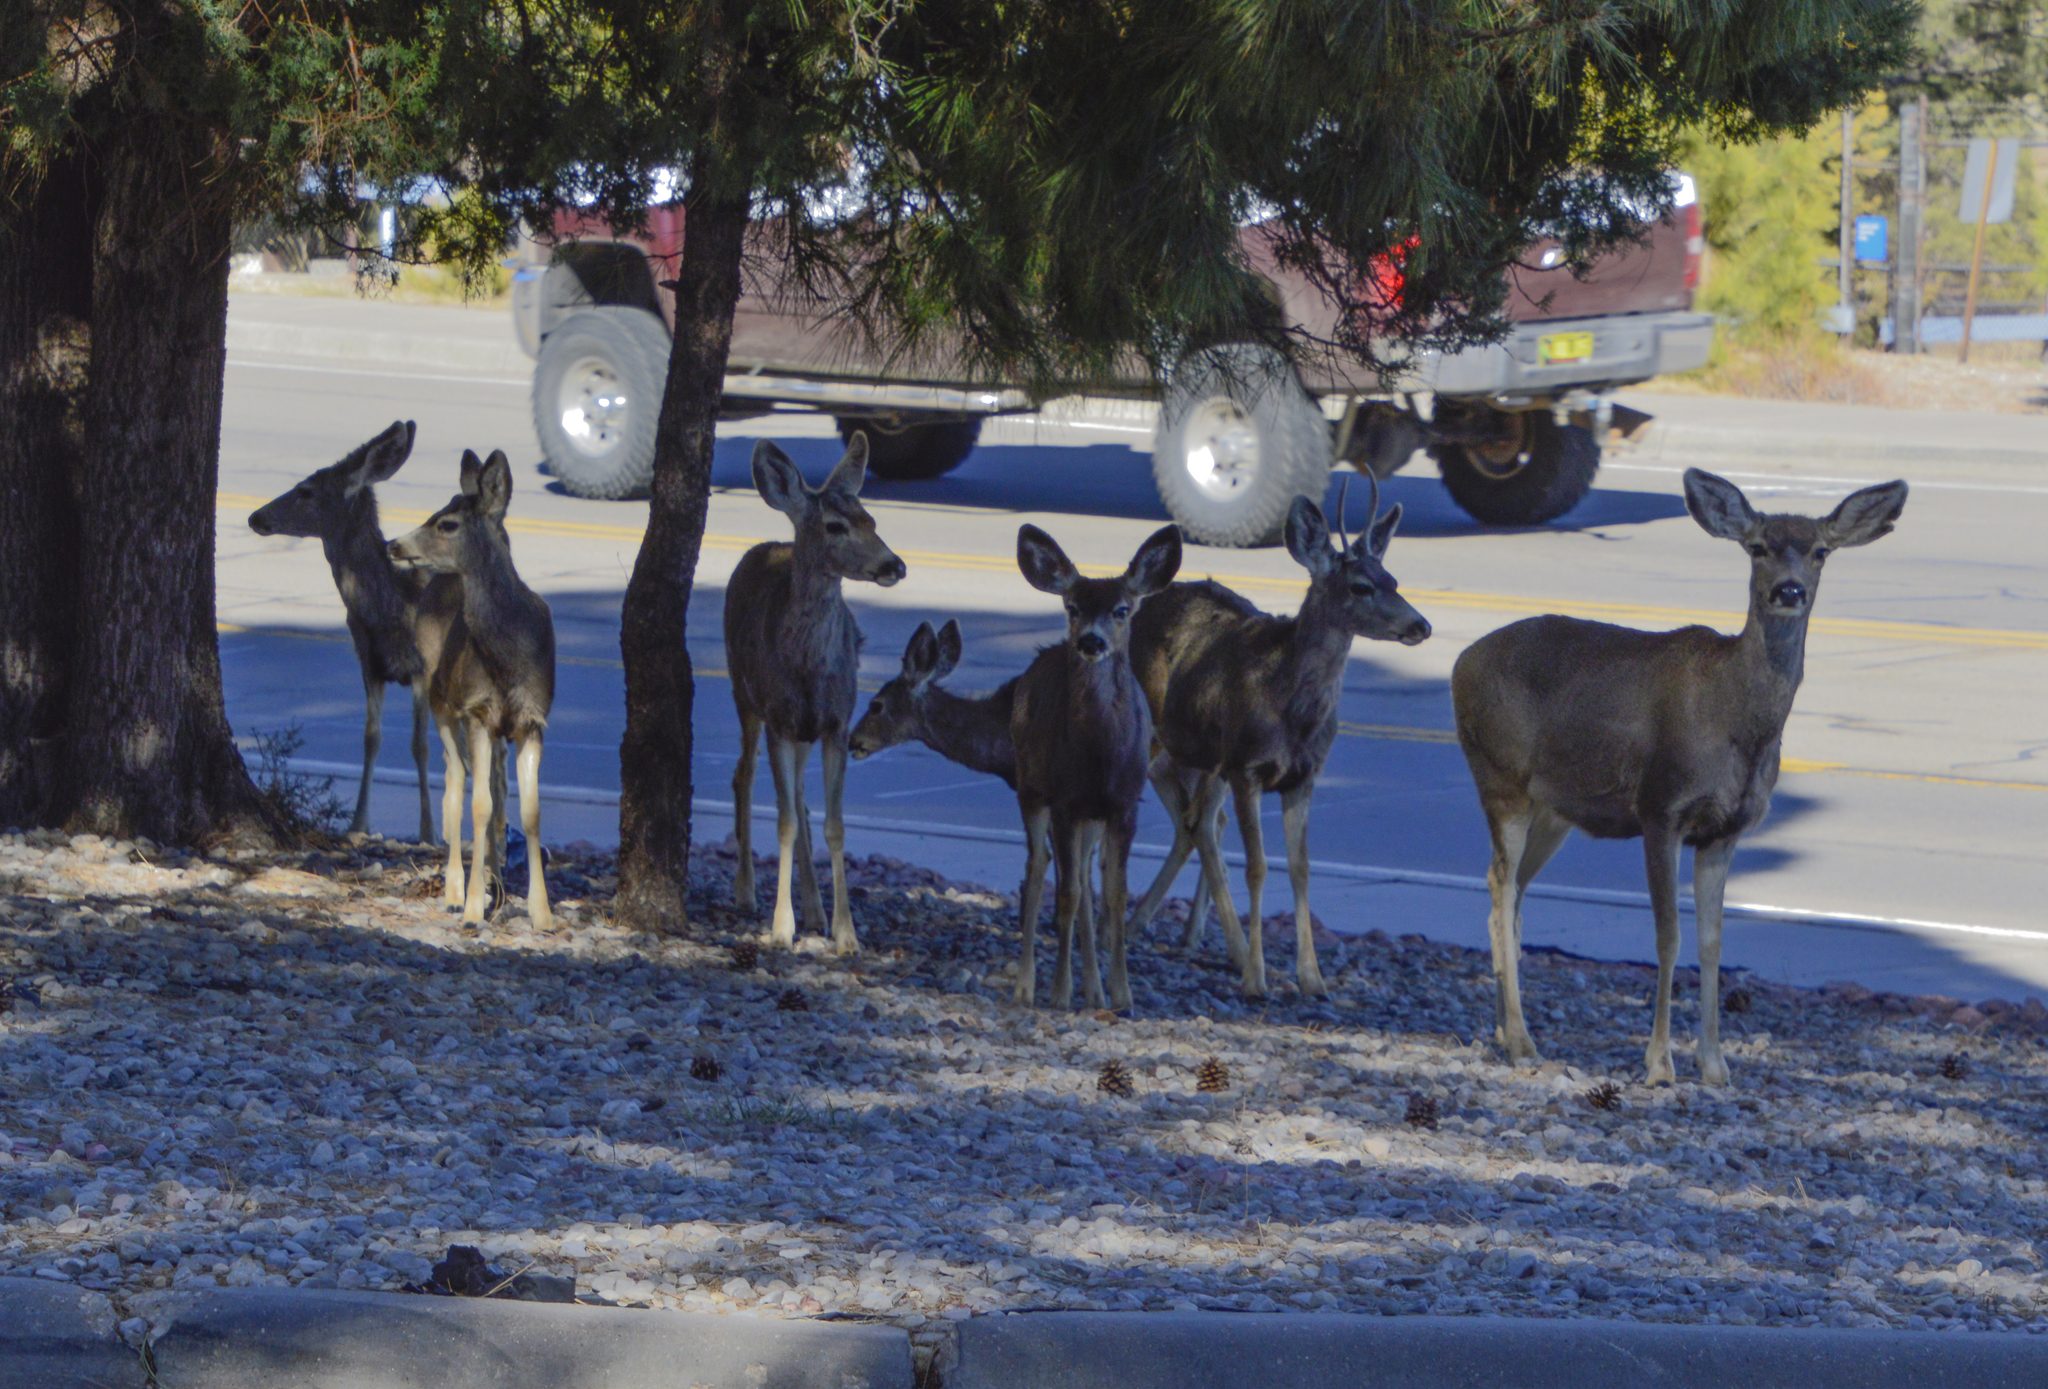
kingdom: Animalia
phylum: Chordata
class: Mammalia
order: Artiodactyla
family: Cervidae
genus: Odocoileus
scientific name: Odocoileus hemionus
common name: Mule deer
